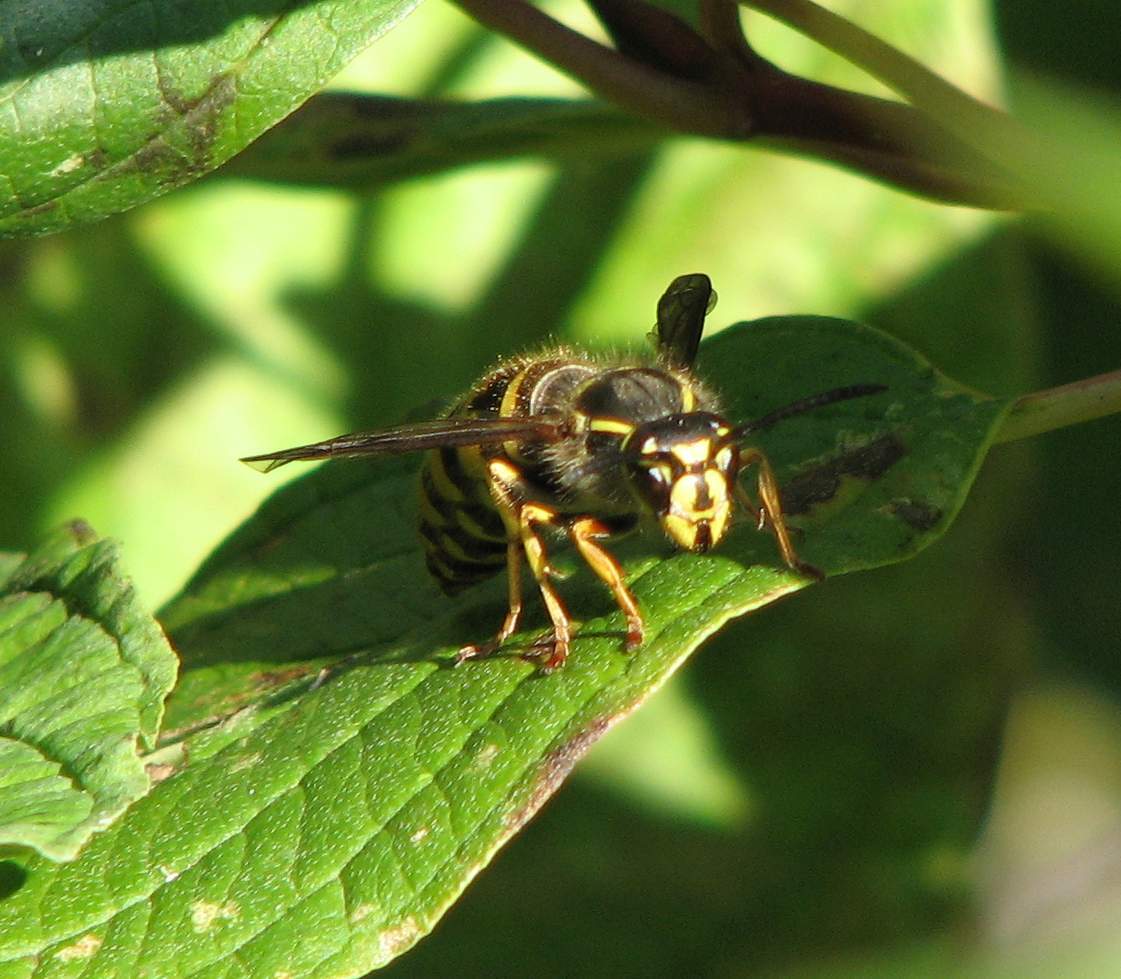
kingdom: Animalia
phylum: Arthropoda
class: Insecta
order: Hymenoptera
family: Vespidae
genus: Vespula
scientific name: Vespula alascensis
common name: Alaska yellowjacket
